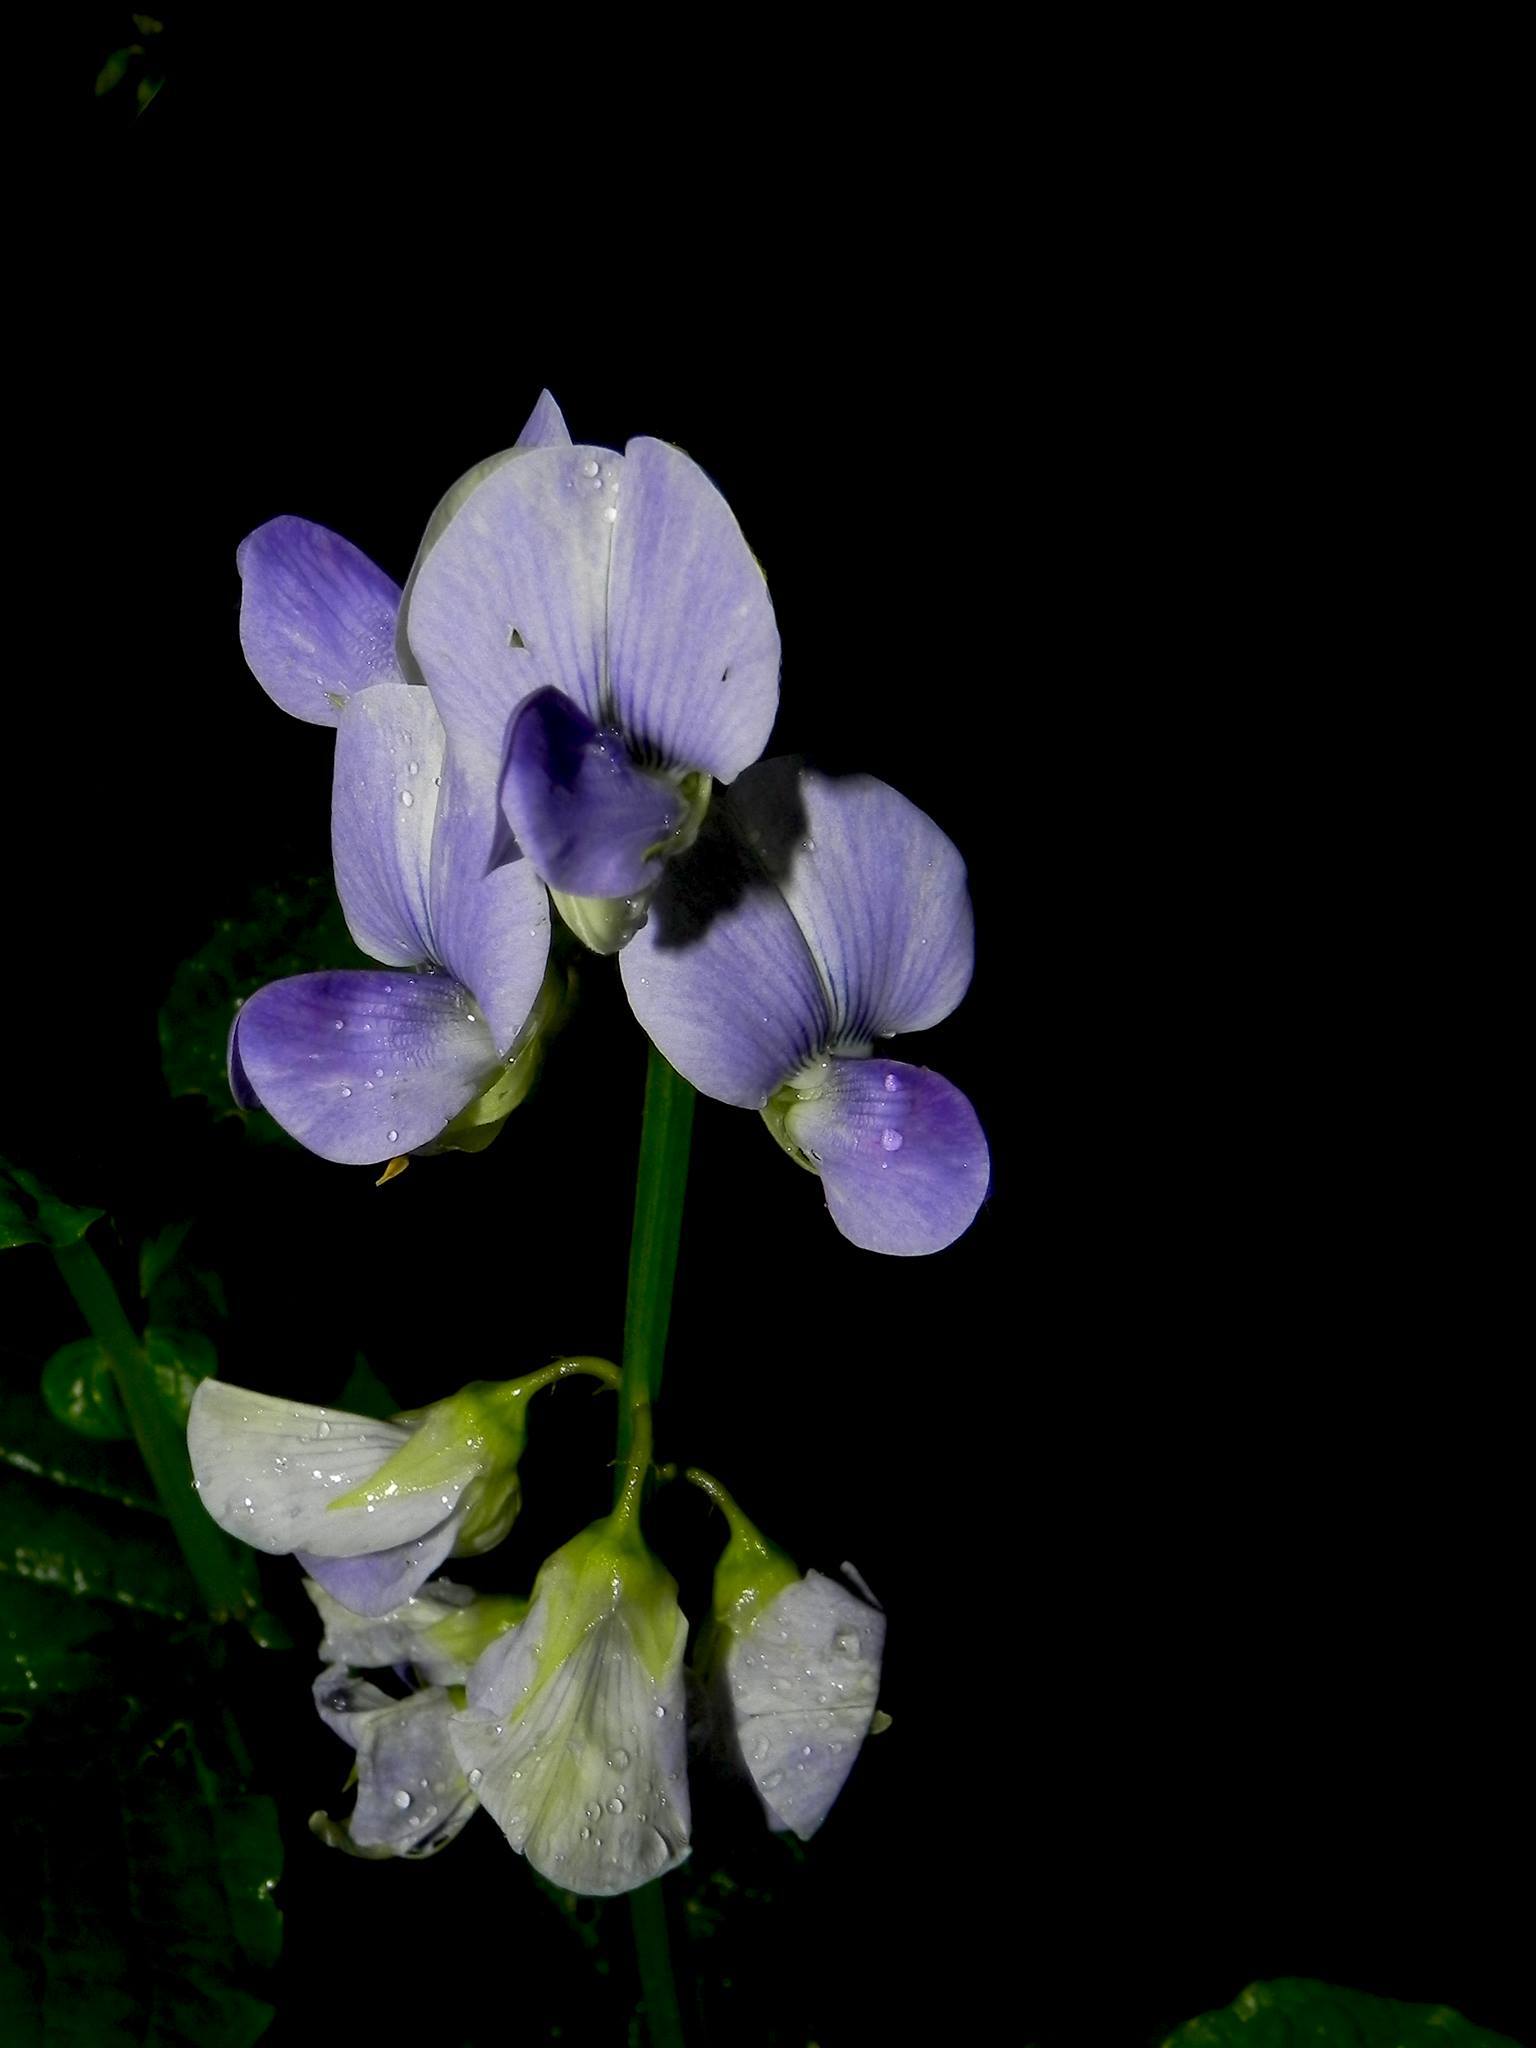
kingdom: Plantae
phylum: Tracheophyta
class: Magnoliopsida
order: Fabales
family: Fabaceae
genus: Crotalaria
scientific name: Crotalaria verrucosa
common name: Blue rattlesnake
